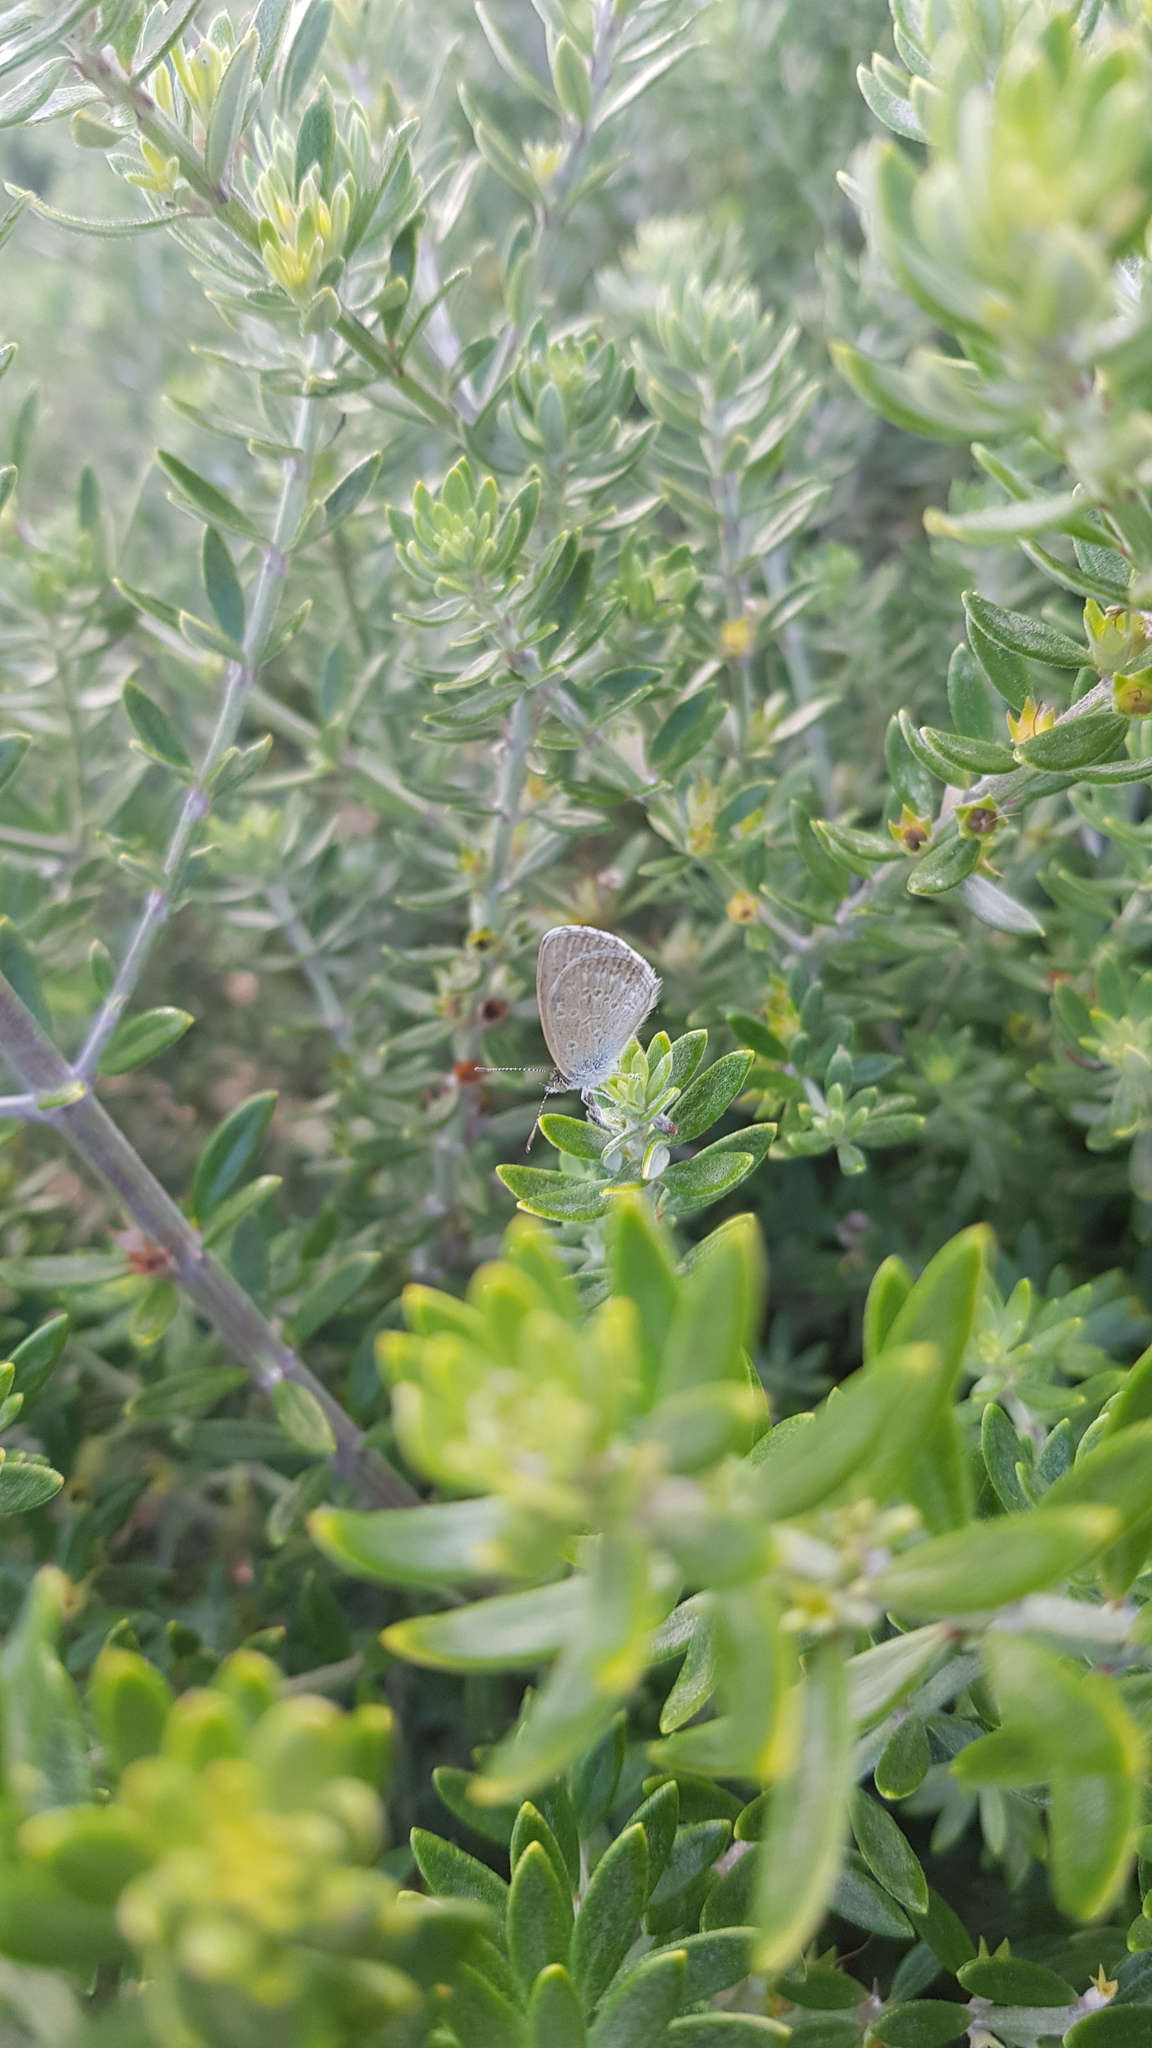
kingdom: Animalia
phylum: Arthropoda
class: Insecta
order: Lepidoptera
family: Lycaenidae
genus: Zizina
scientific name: Zizina labradus
